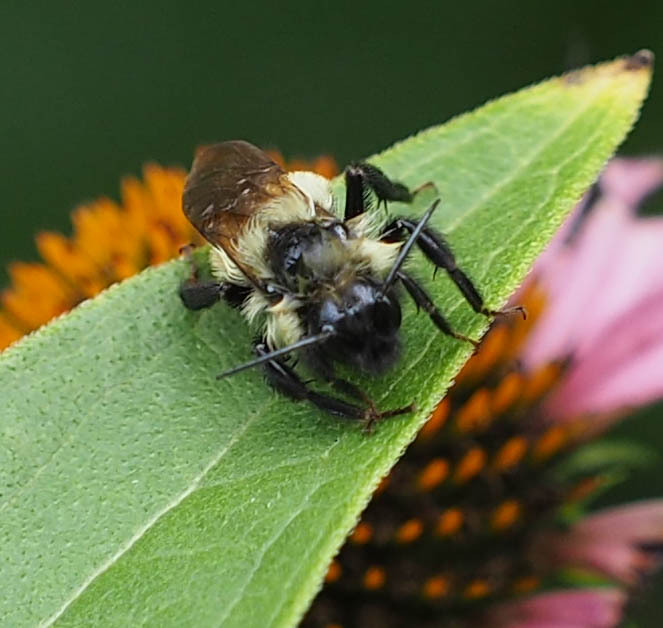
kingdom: Animalia
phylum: Arthropoda
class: Insecta
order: Hymenoptera
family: Apidae
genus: Bombus
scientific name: Bombus citrinus
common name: Lemon cuckoo bumble bee
